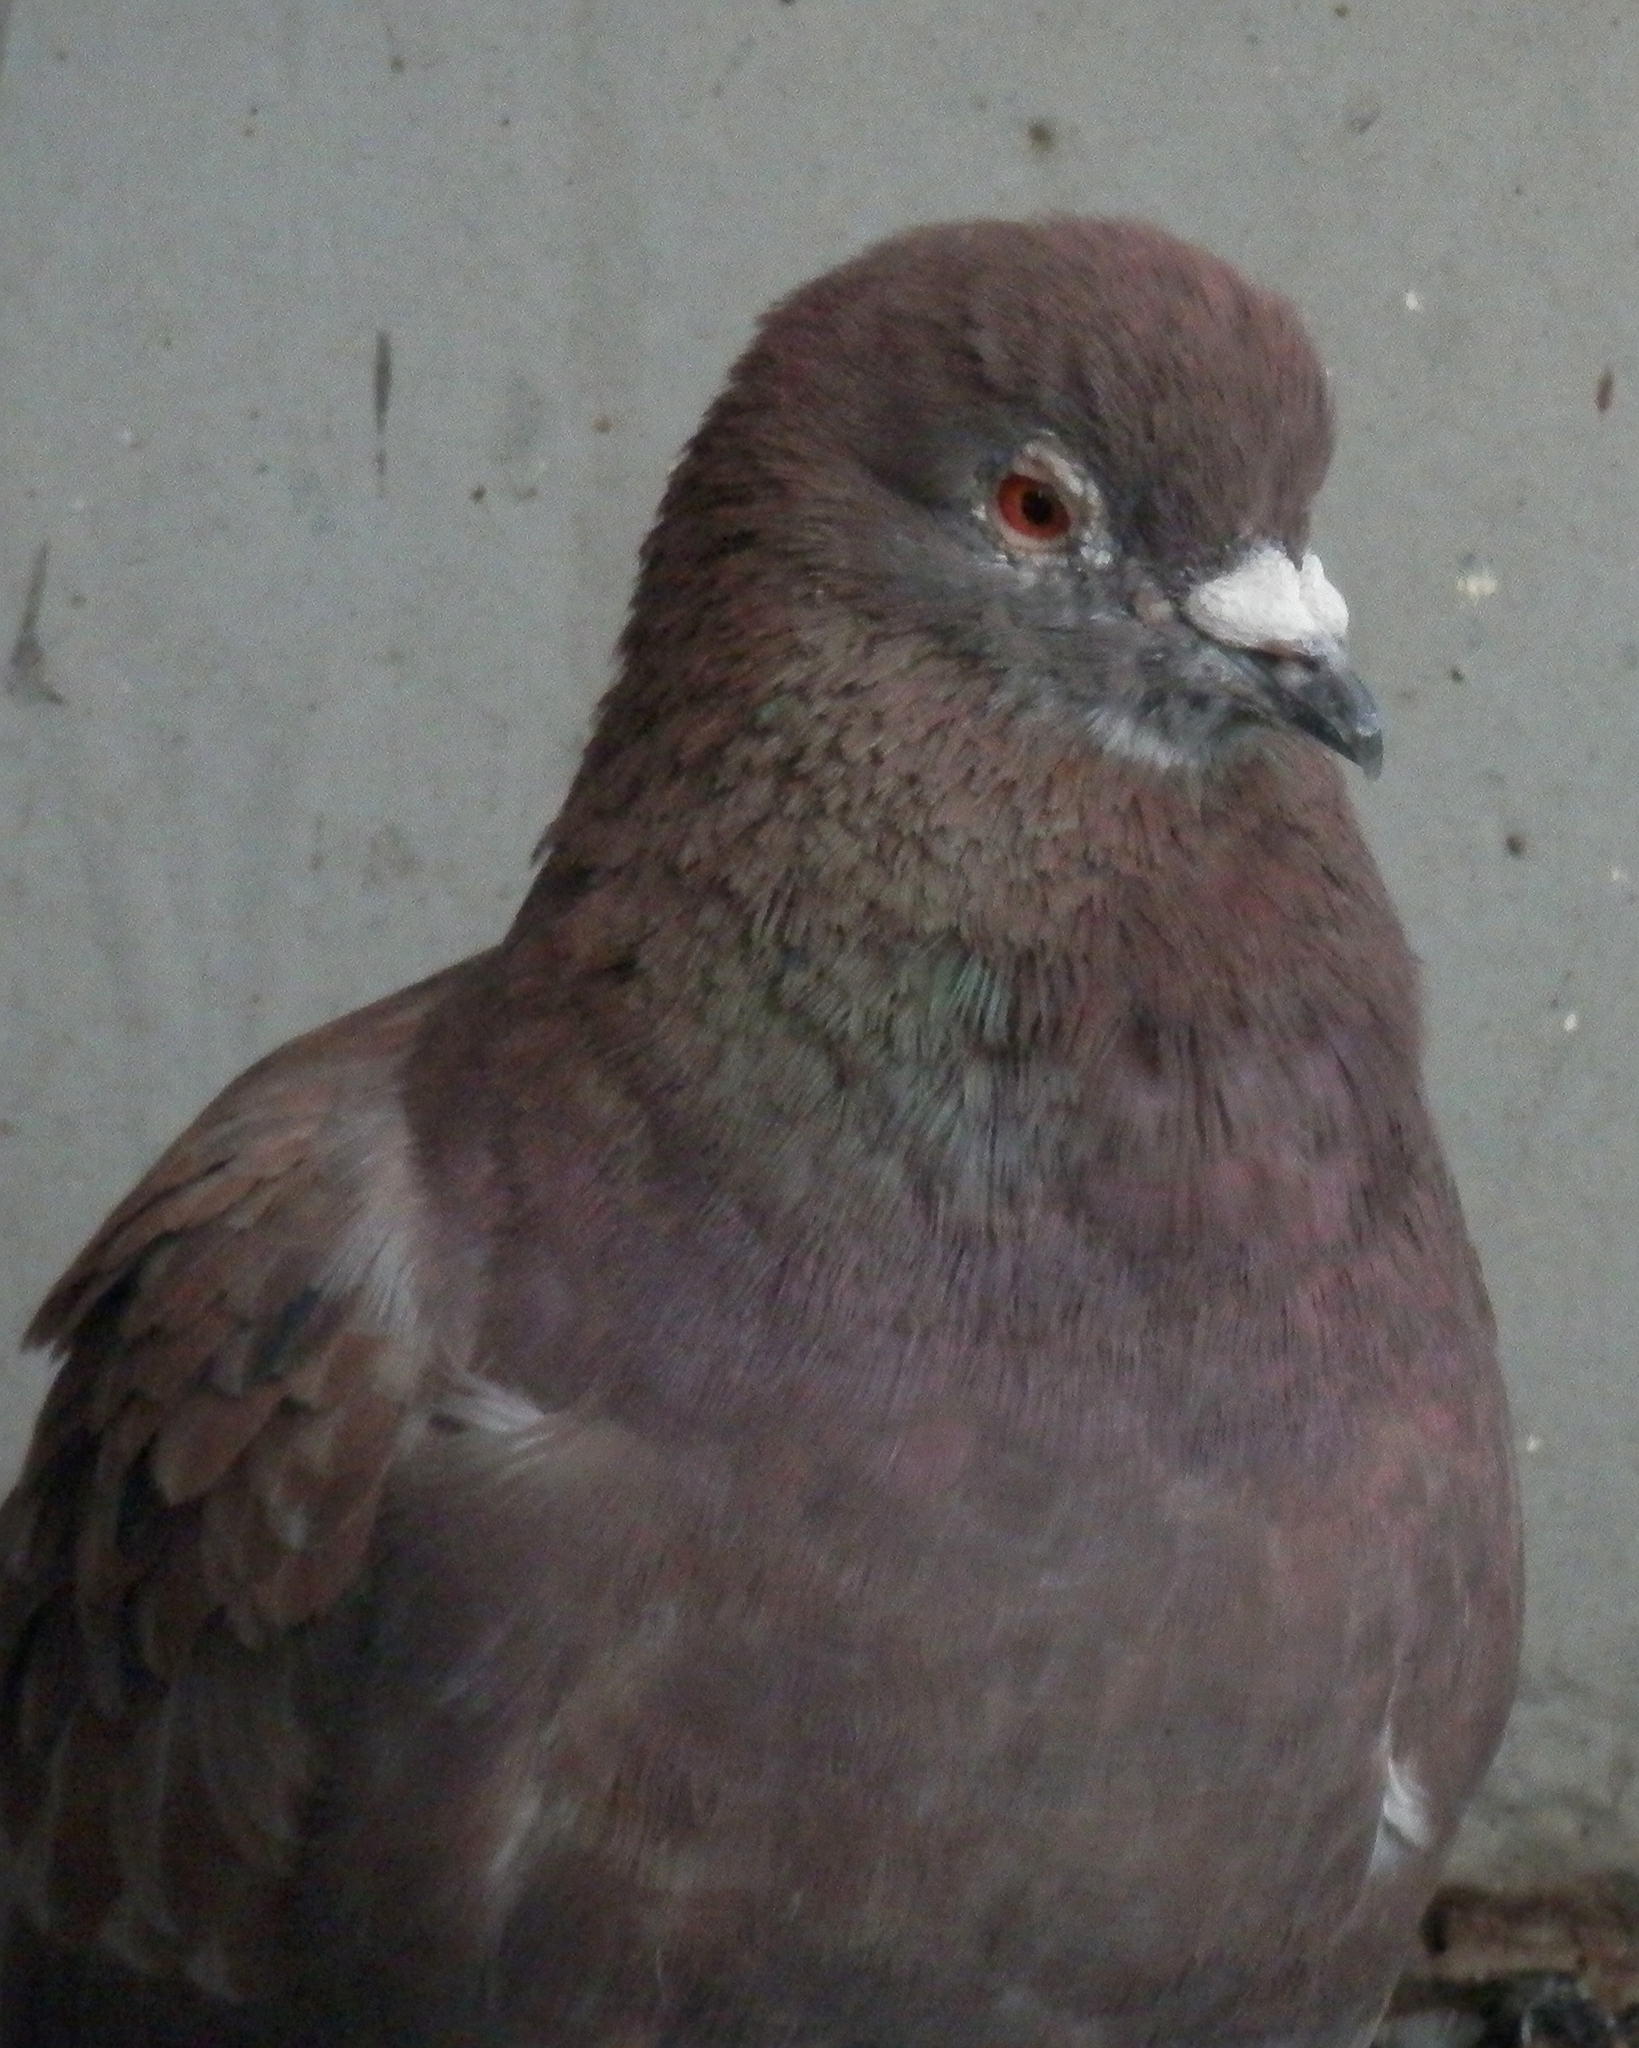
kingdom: Animalia
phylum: Chordata
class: Aves
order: Columbiformes
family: Columbidae
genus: Columba
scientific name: Columba livia
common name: Rock pigeon
